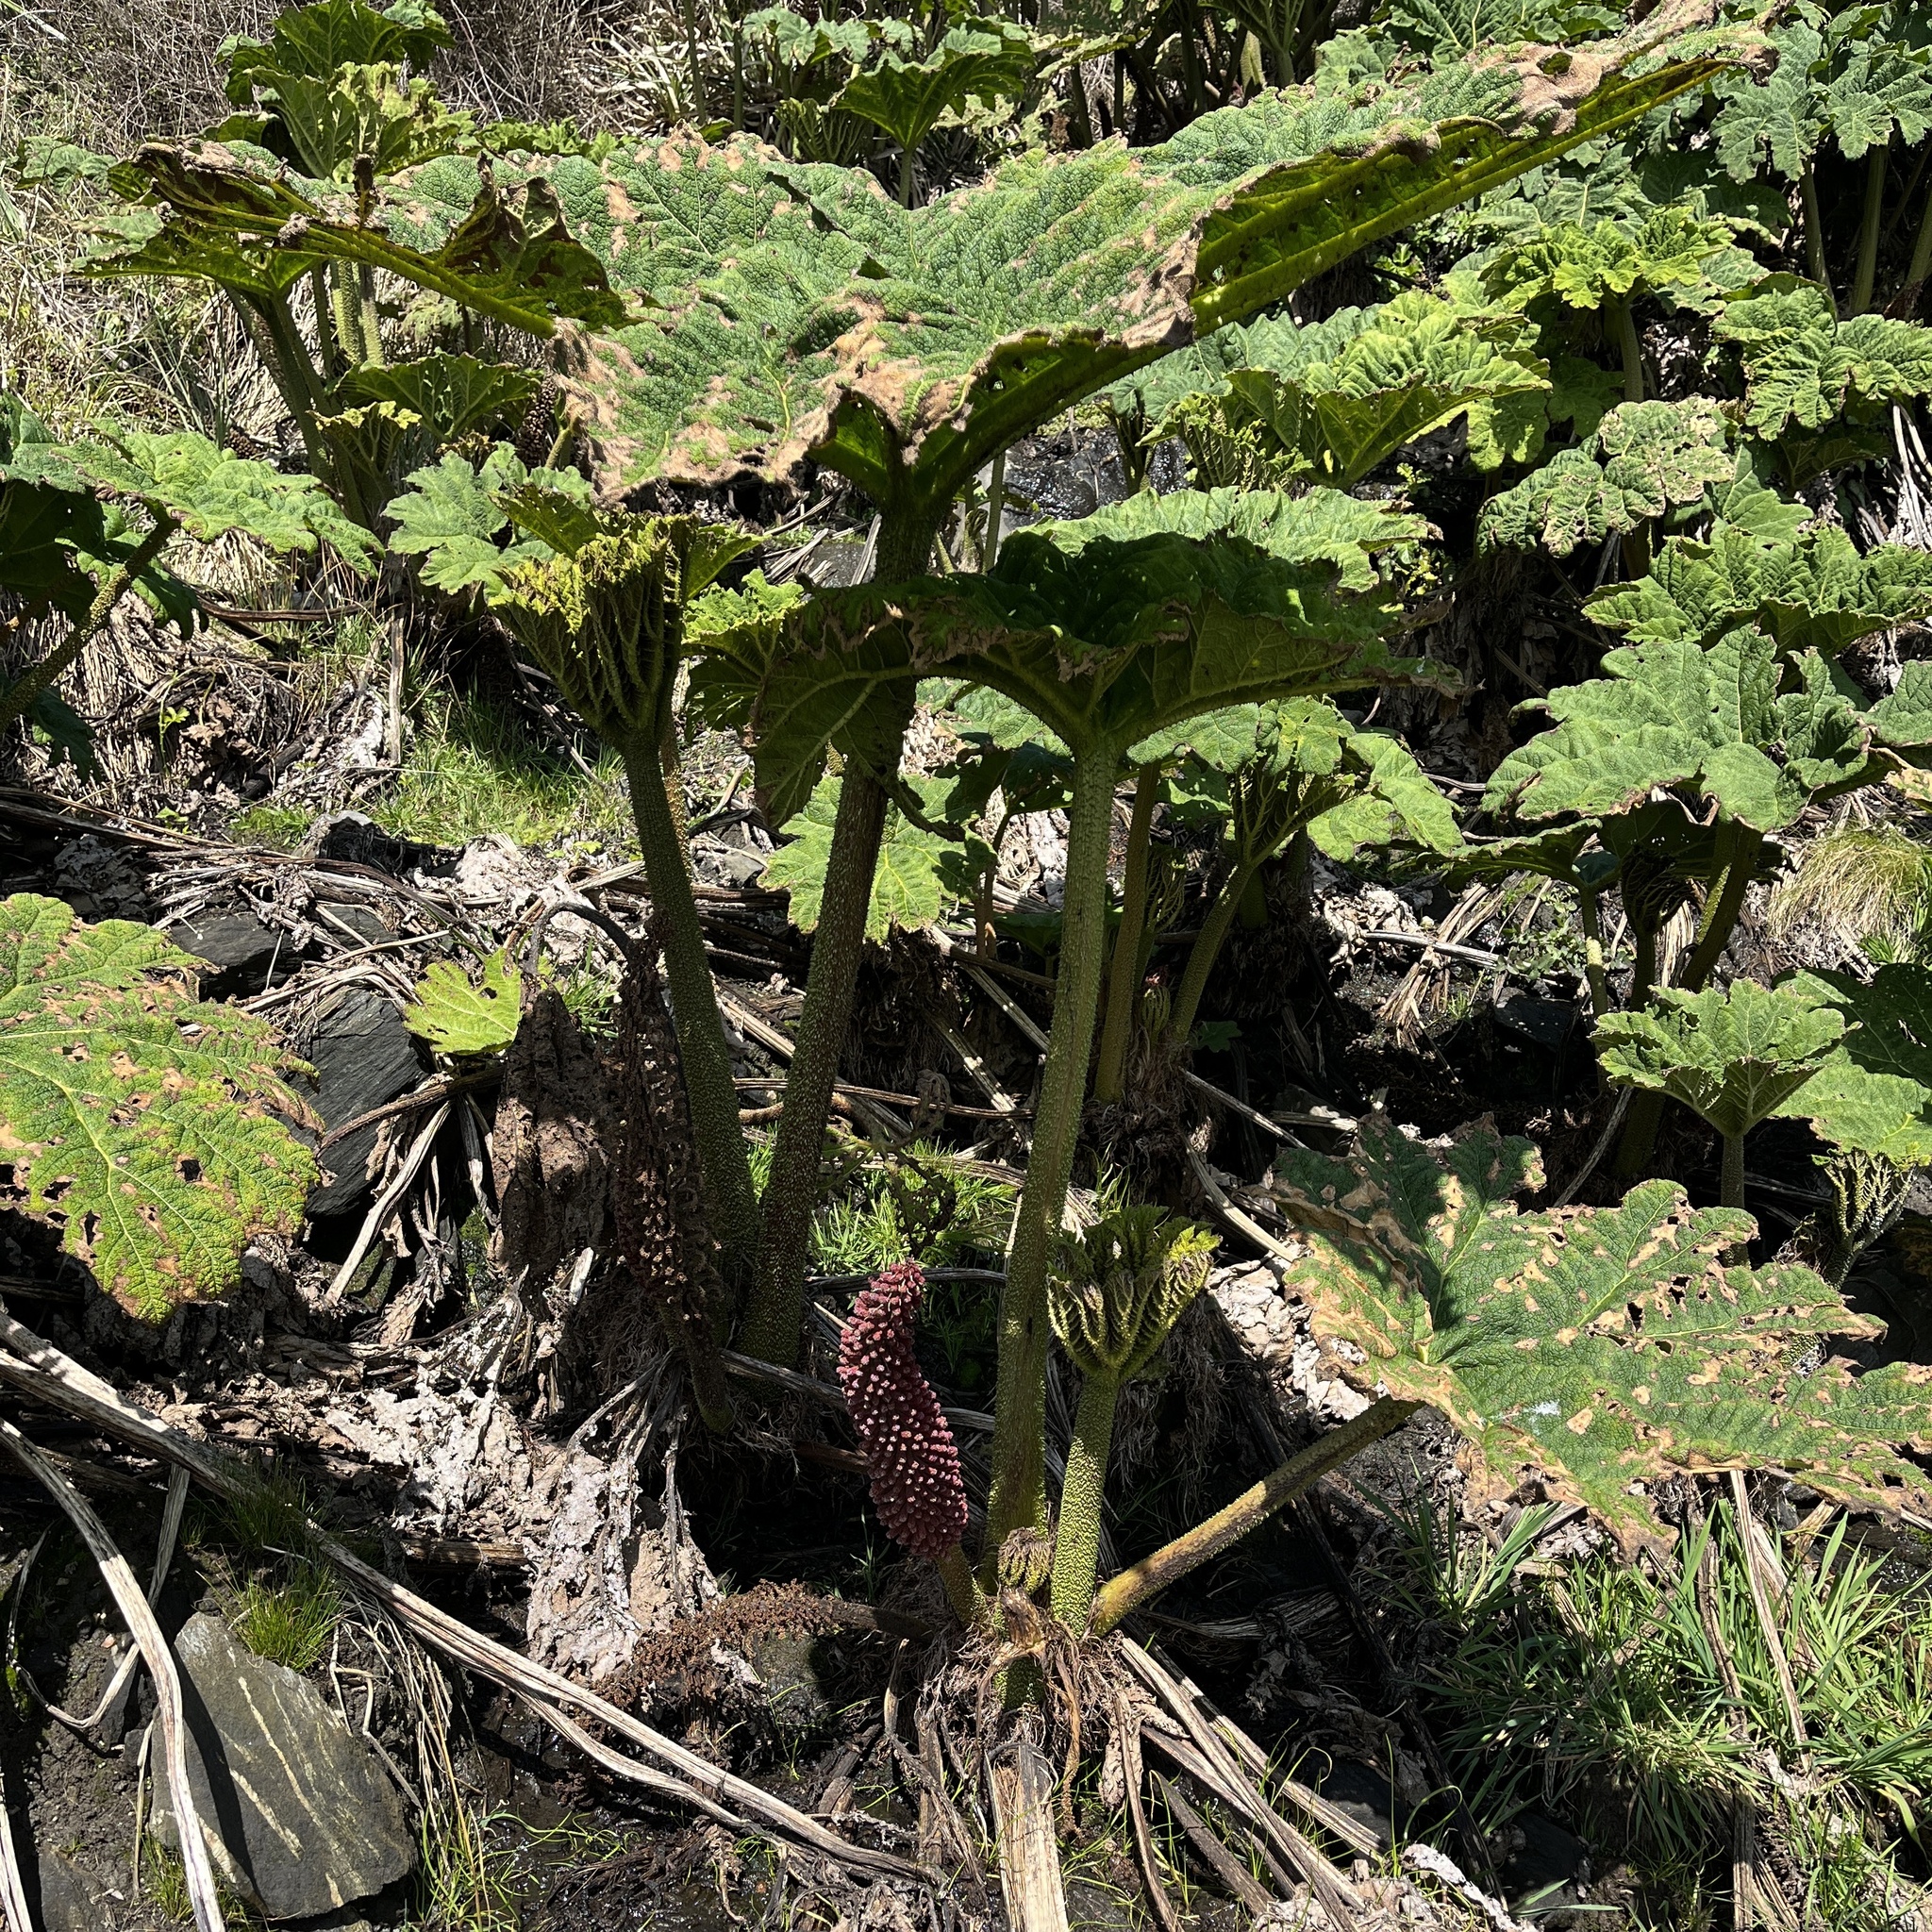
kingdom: Plantae
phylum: Tracheophyta
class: Magnoliopsida
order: Gunnerales
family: Gunneraceae
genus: Gunnera
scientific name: Gunnera tinctoria
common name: Giant-rhubarb
